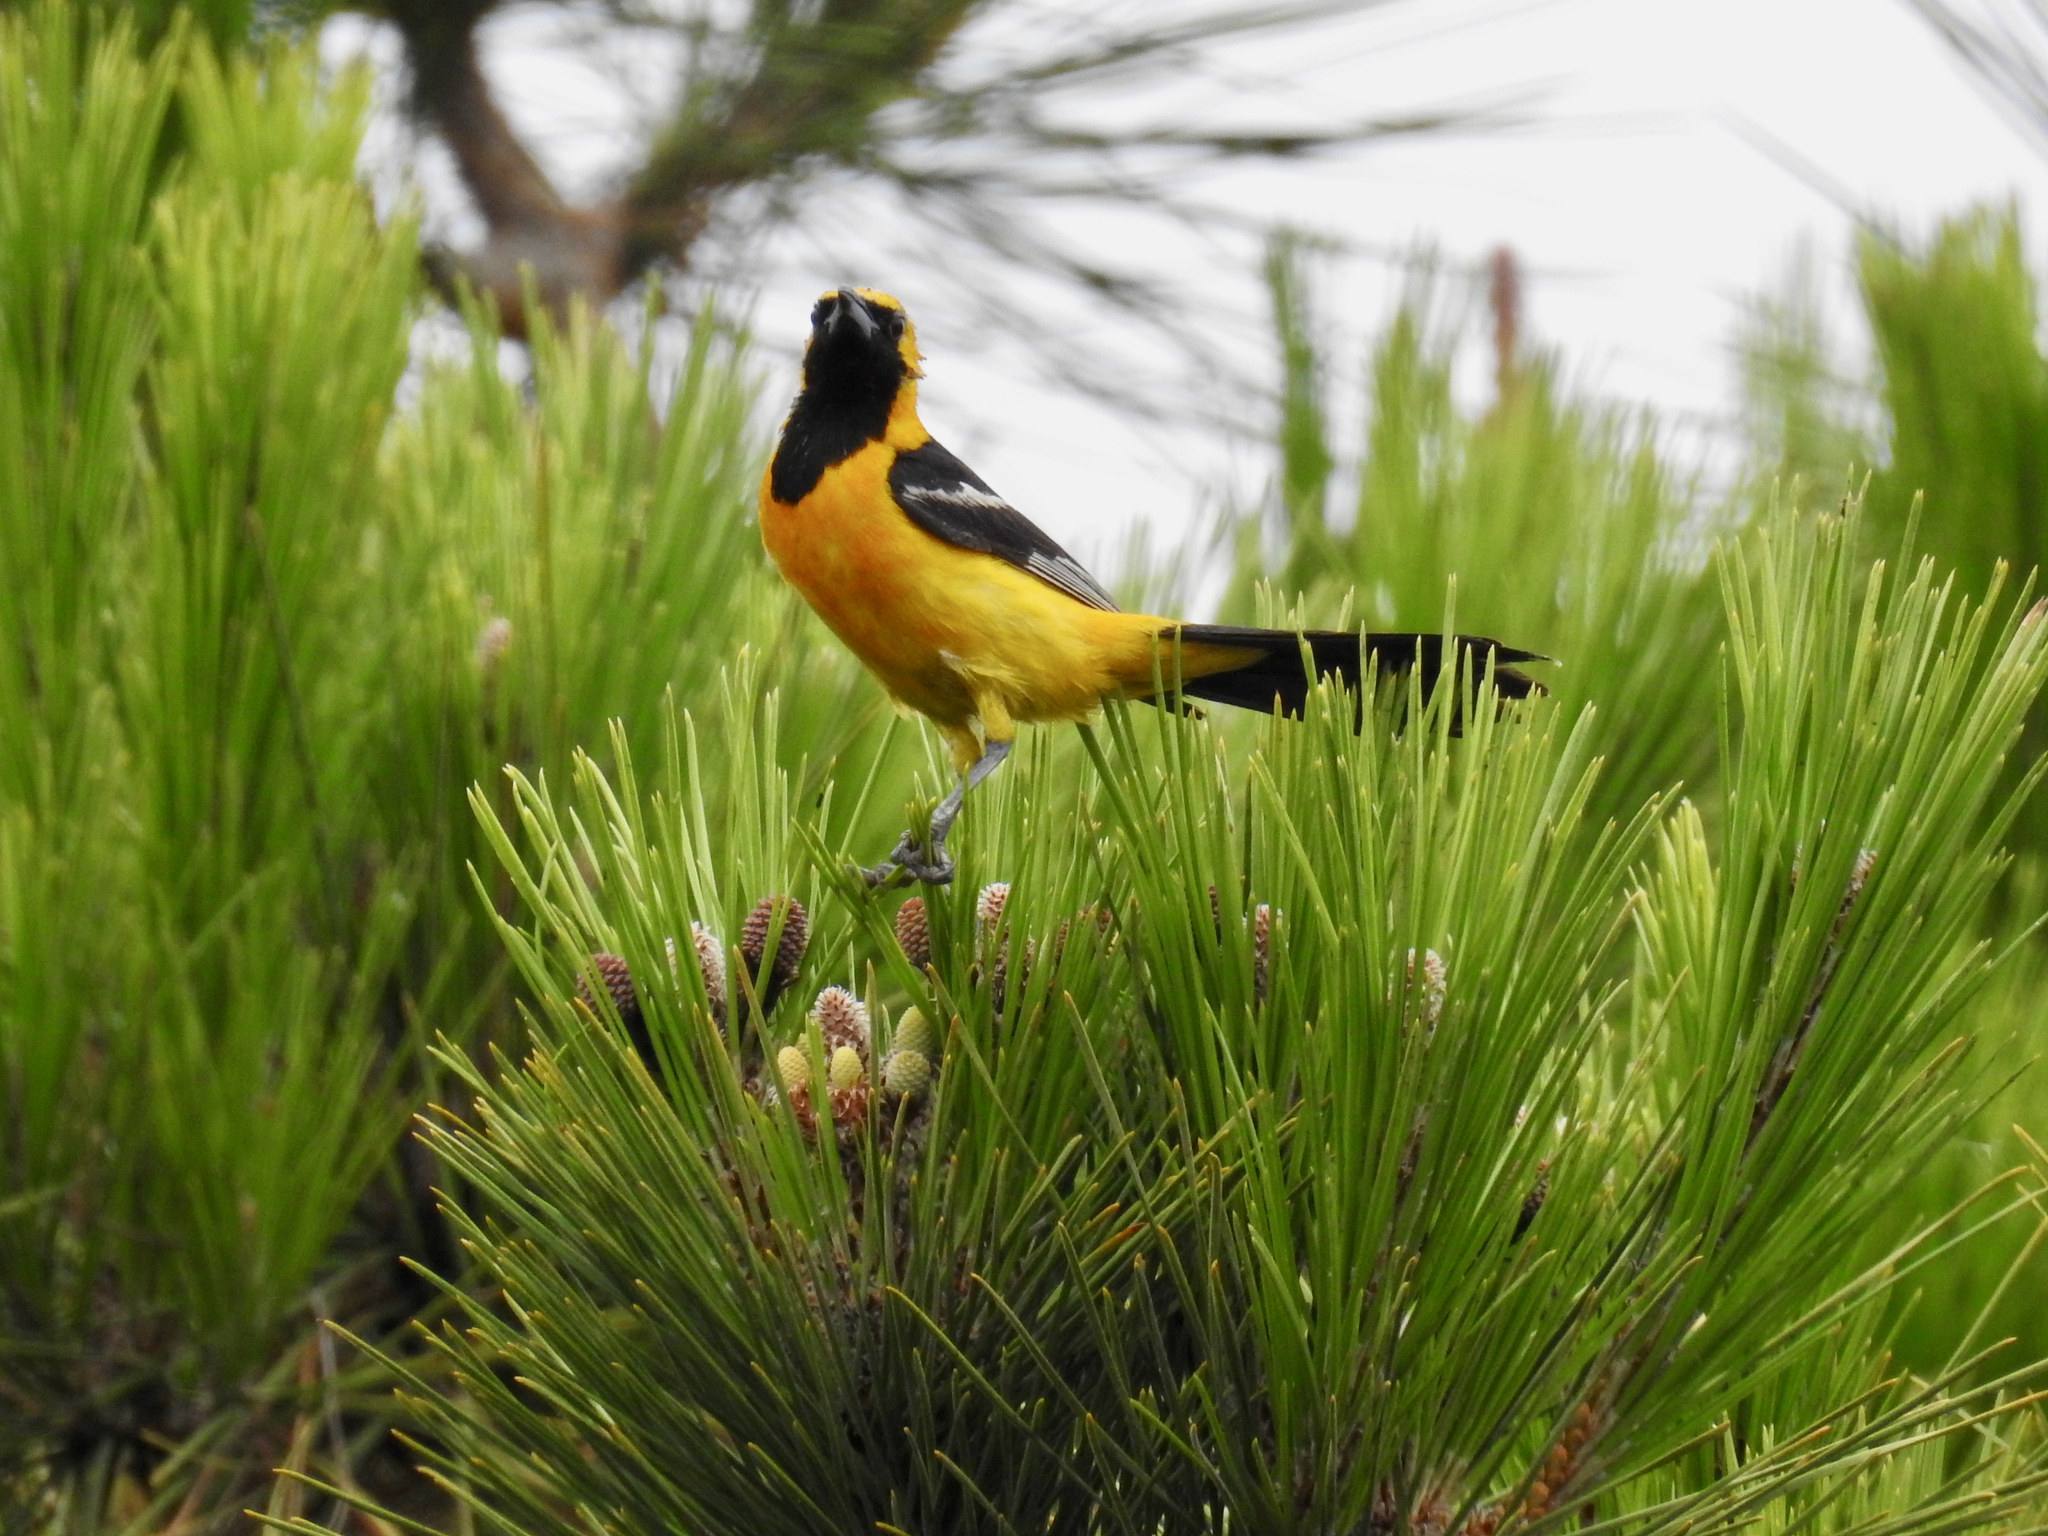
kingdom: Animalia
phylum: Chordata
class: Aves
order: Passeriformes
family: Icteridae
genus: Icterus
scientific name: Icterus cucullatus
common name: Hooded oriole
